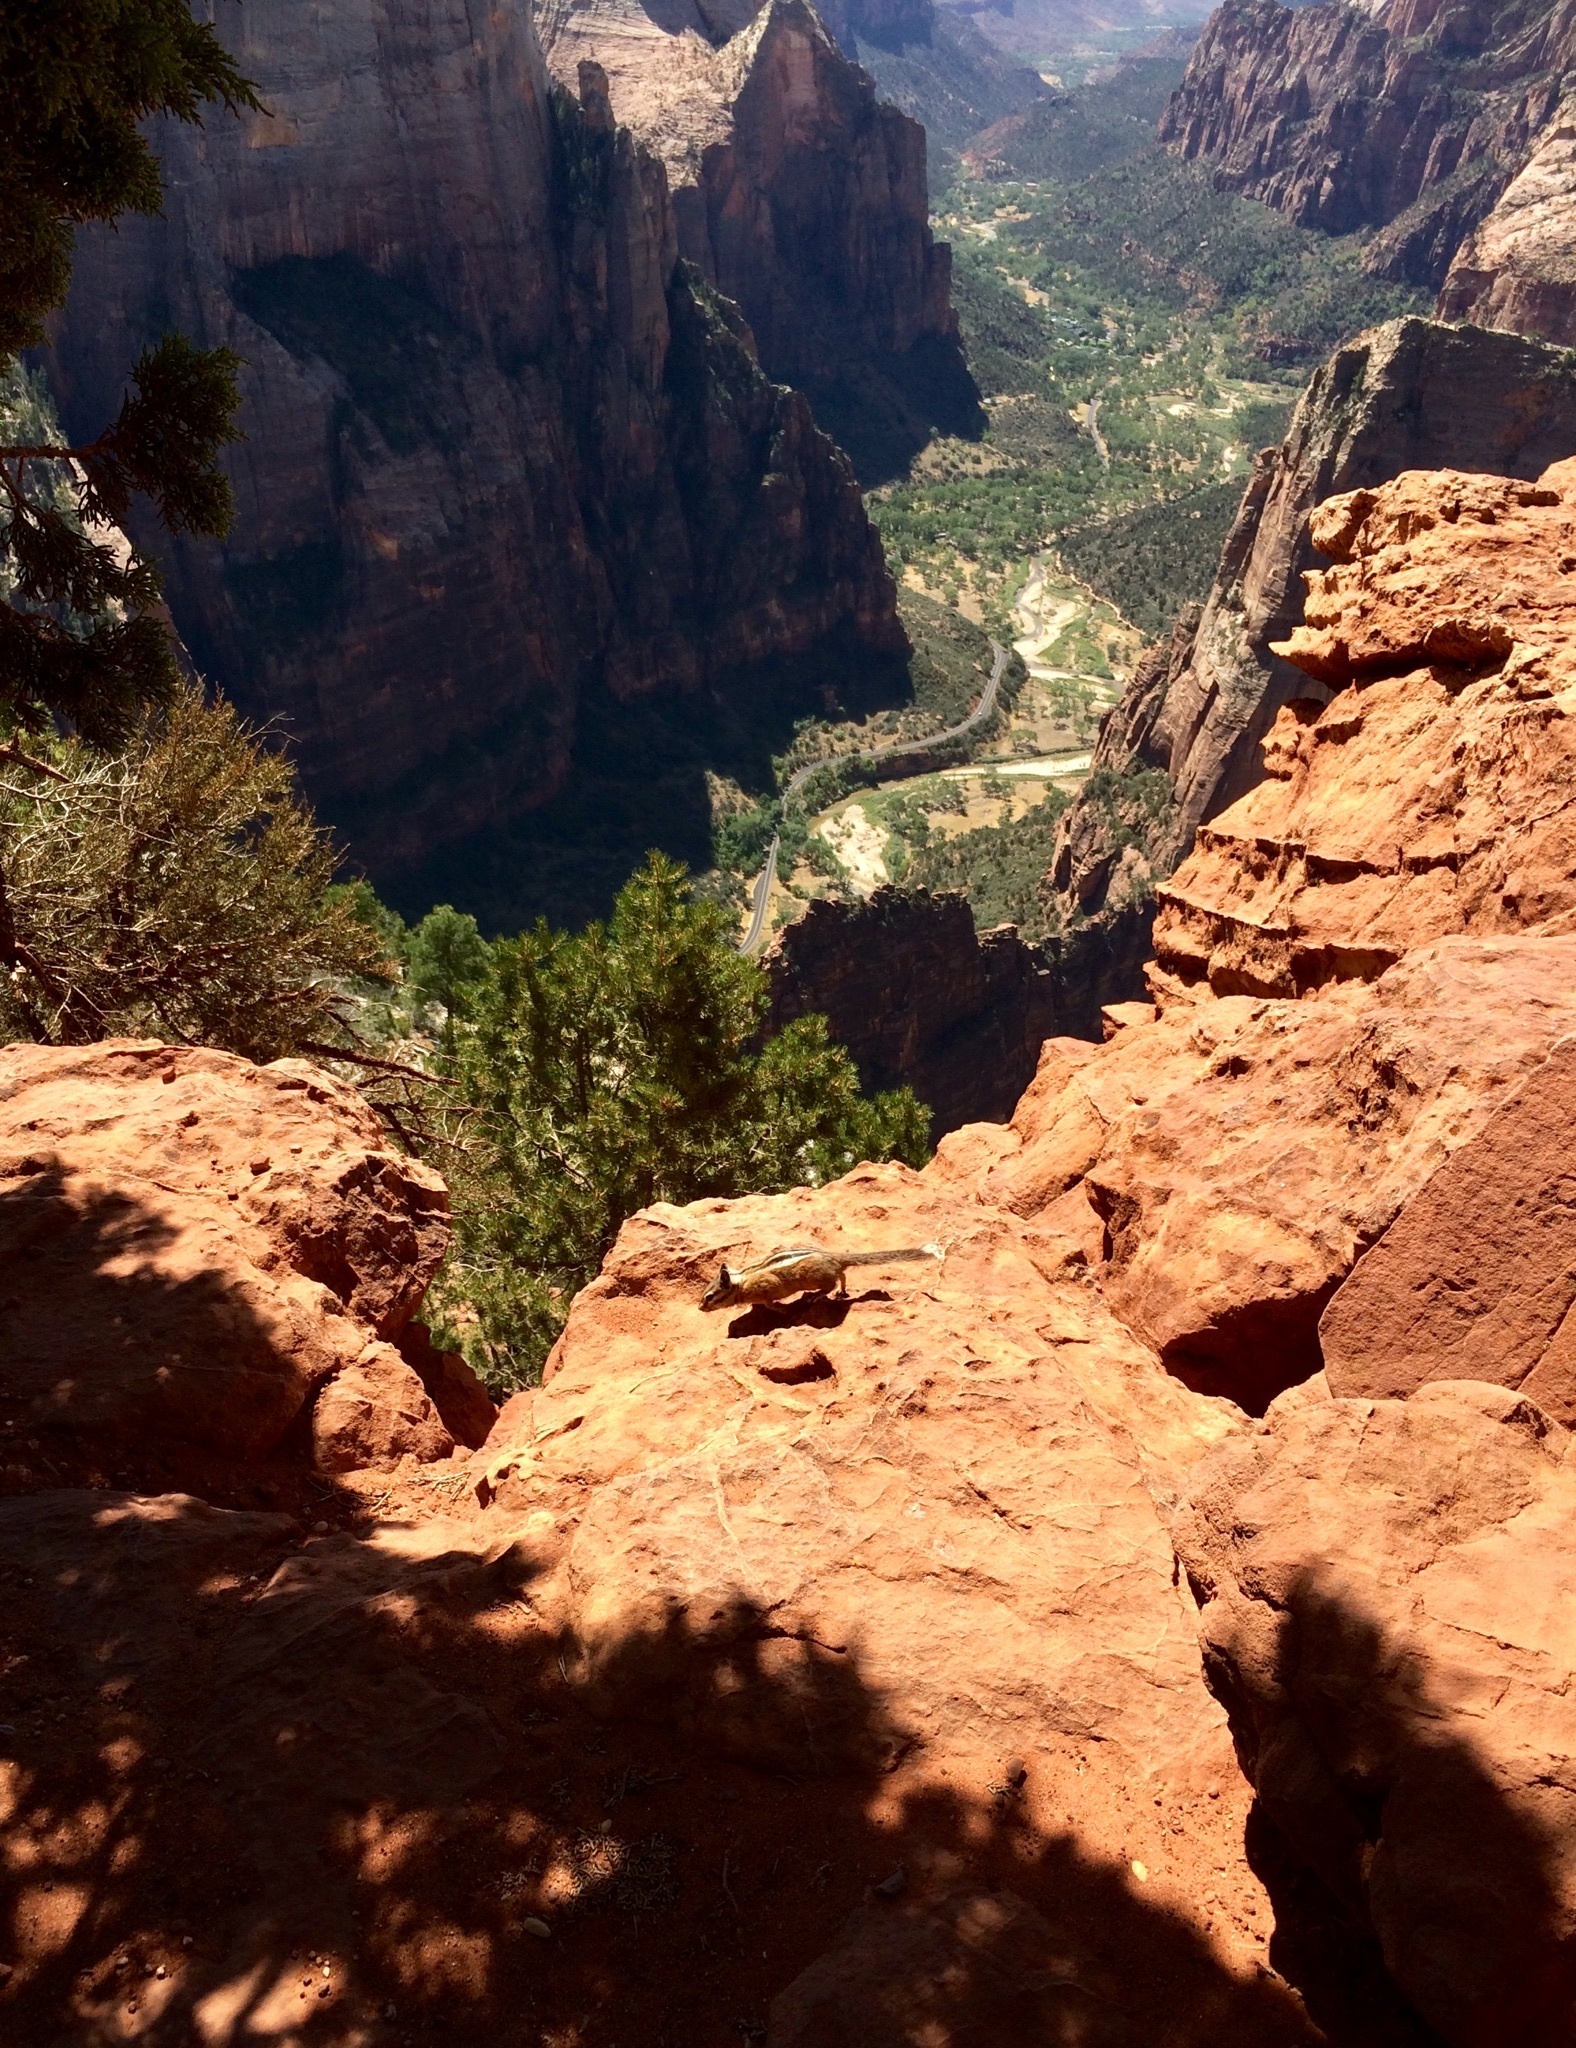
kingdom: Animalia
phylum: Chordata
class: Mammalia
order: Rodentia
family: Sciuridae
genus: Tamias
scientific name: Tamias umbrinus
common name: Uinta chipmunk
